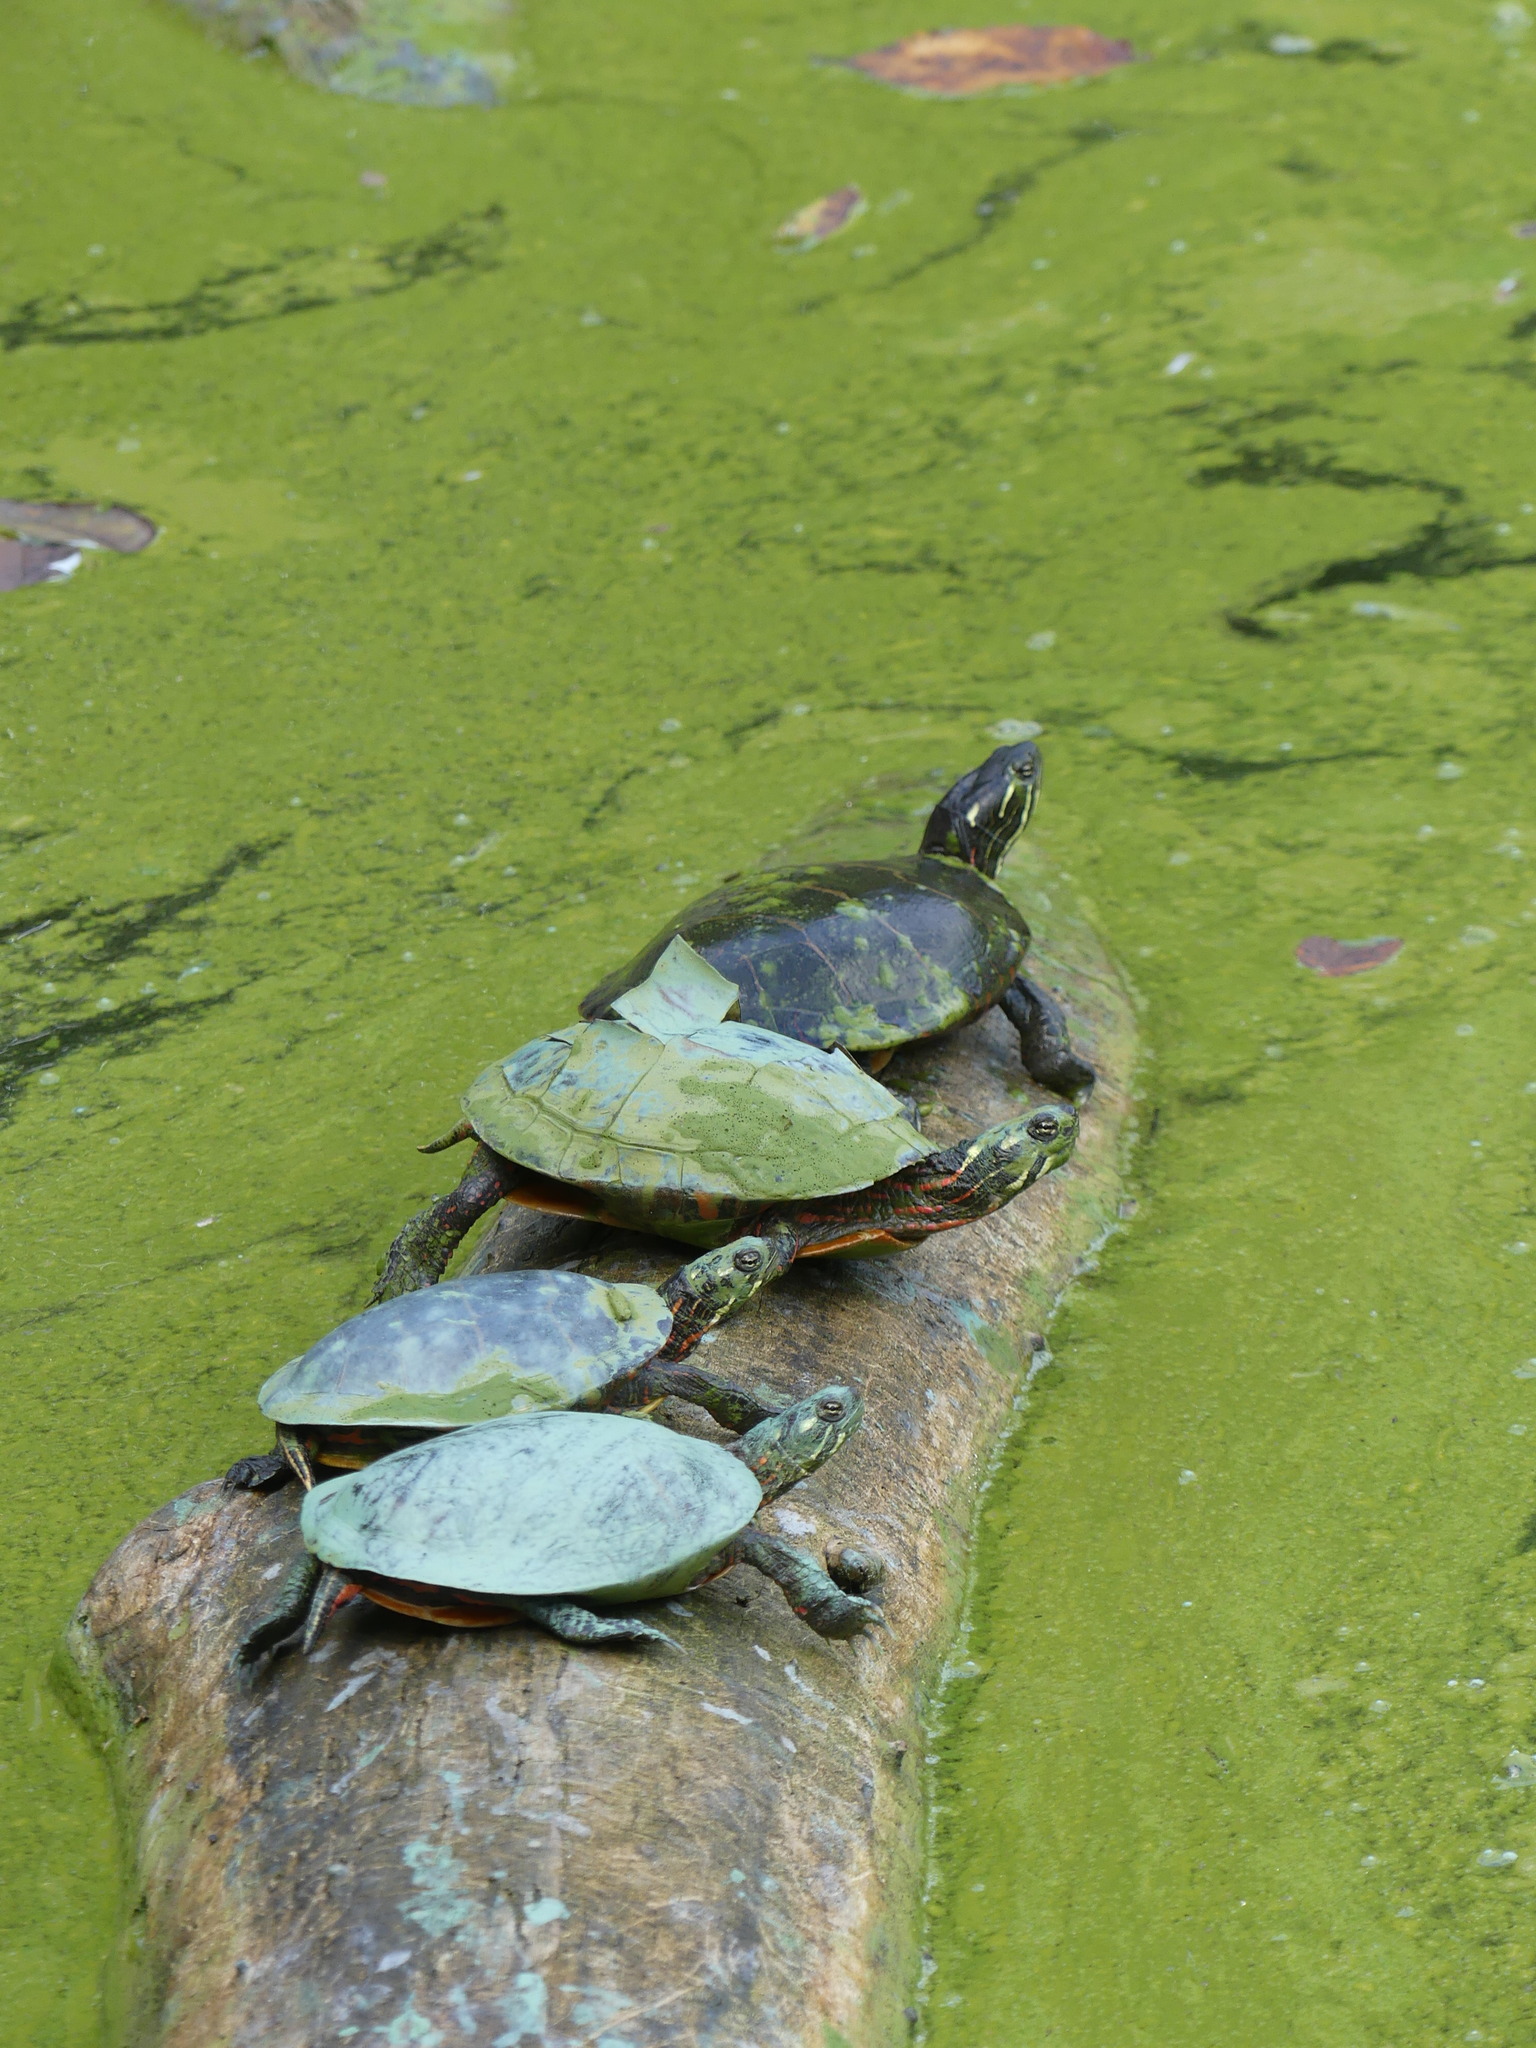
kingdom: Animalia
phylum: Chordata
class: Testudines
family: Emydidae
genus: Chrysemys
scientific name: Chrysemys picta
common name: Painted turtle
